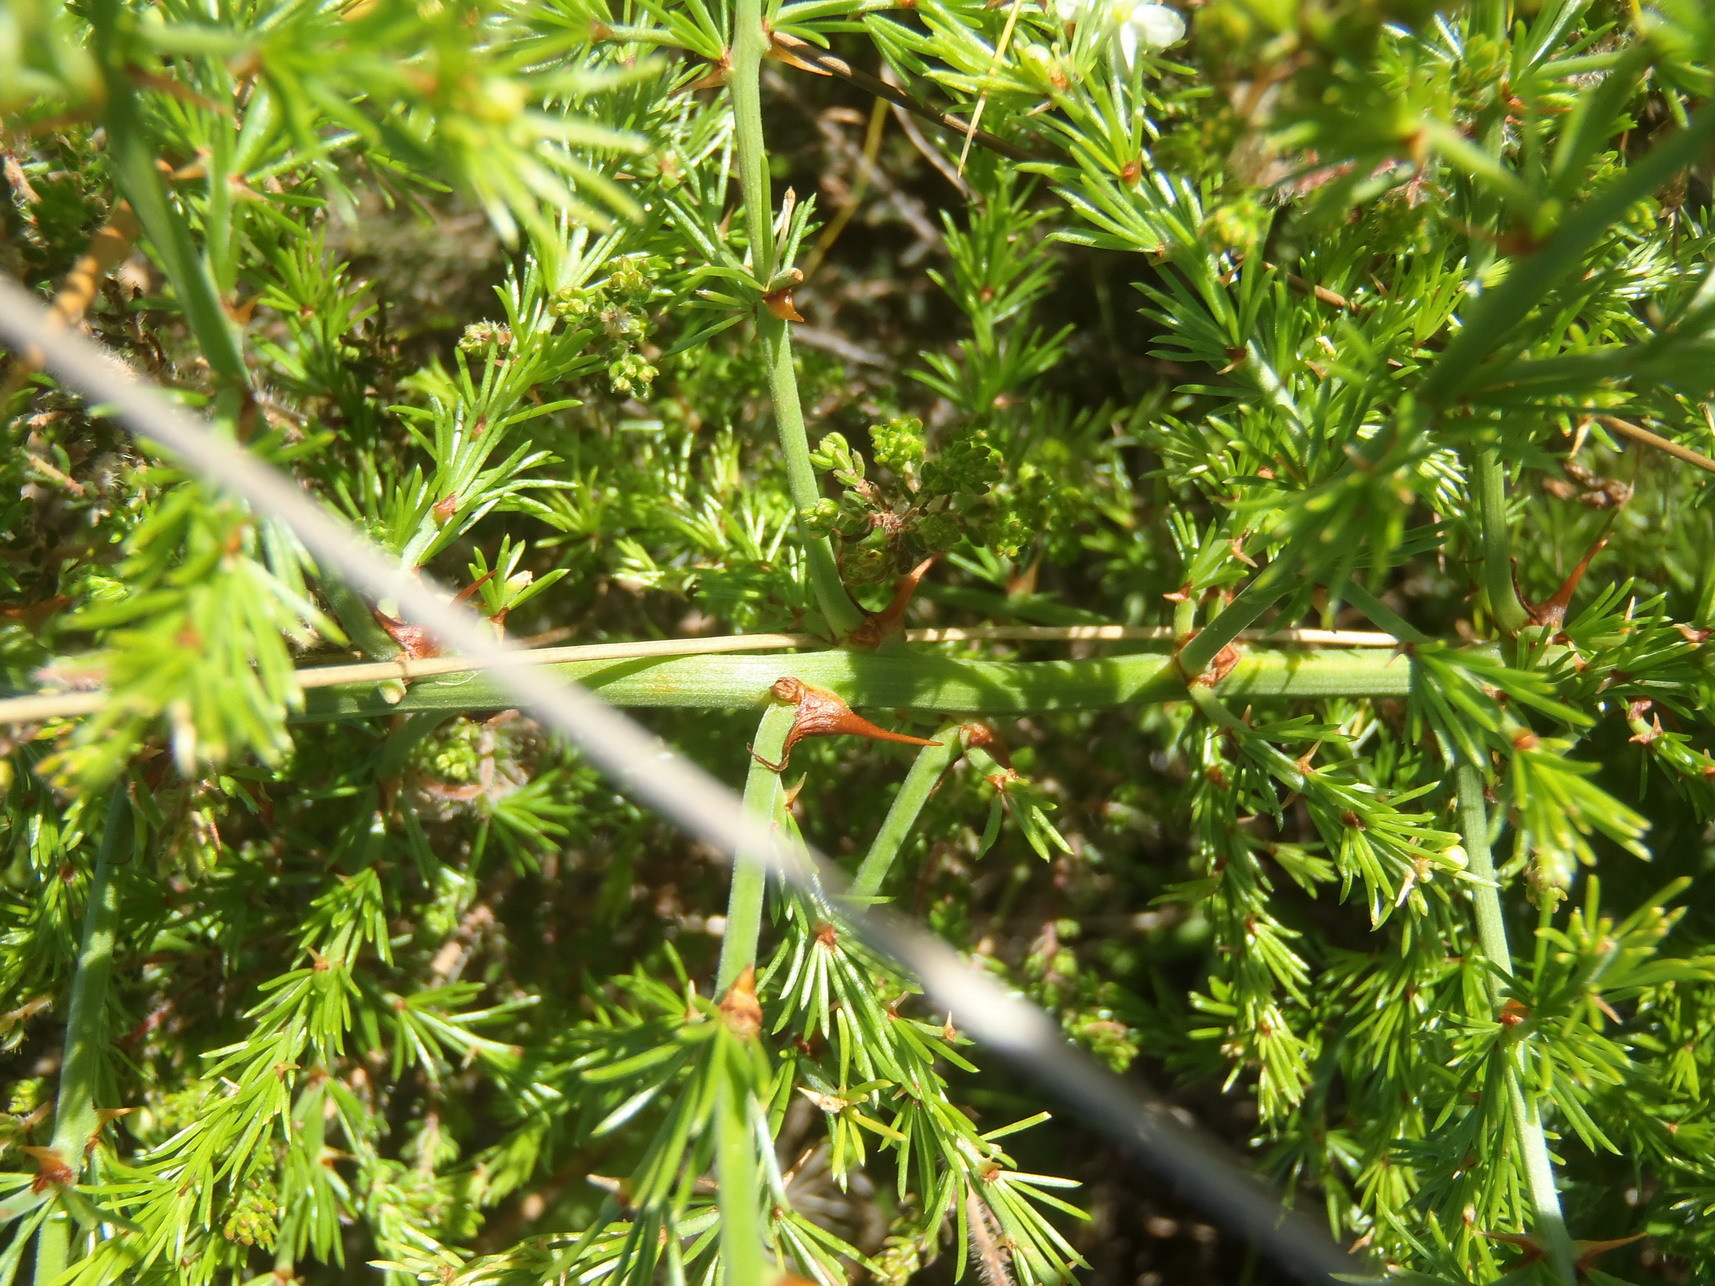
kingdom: Plantae
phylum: Tracheophyta
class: Liliopsida
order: Asparagales
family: Asparagaceae
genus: Asparagus
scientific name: Asparagus africanus
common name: Asparagus-fern
